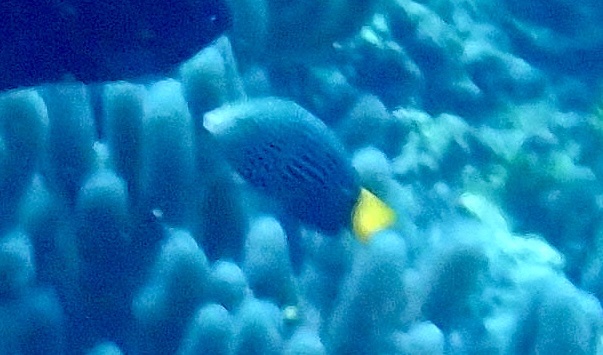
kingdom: Animalia
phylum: Chordata
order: Perciformes
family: Labridae
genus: Anampses
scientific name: Anampses meleagrides
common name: Yellowtail wrasse
